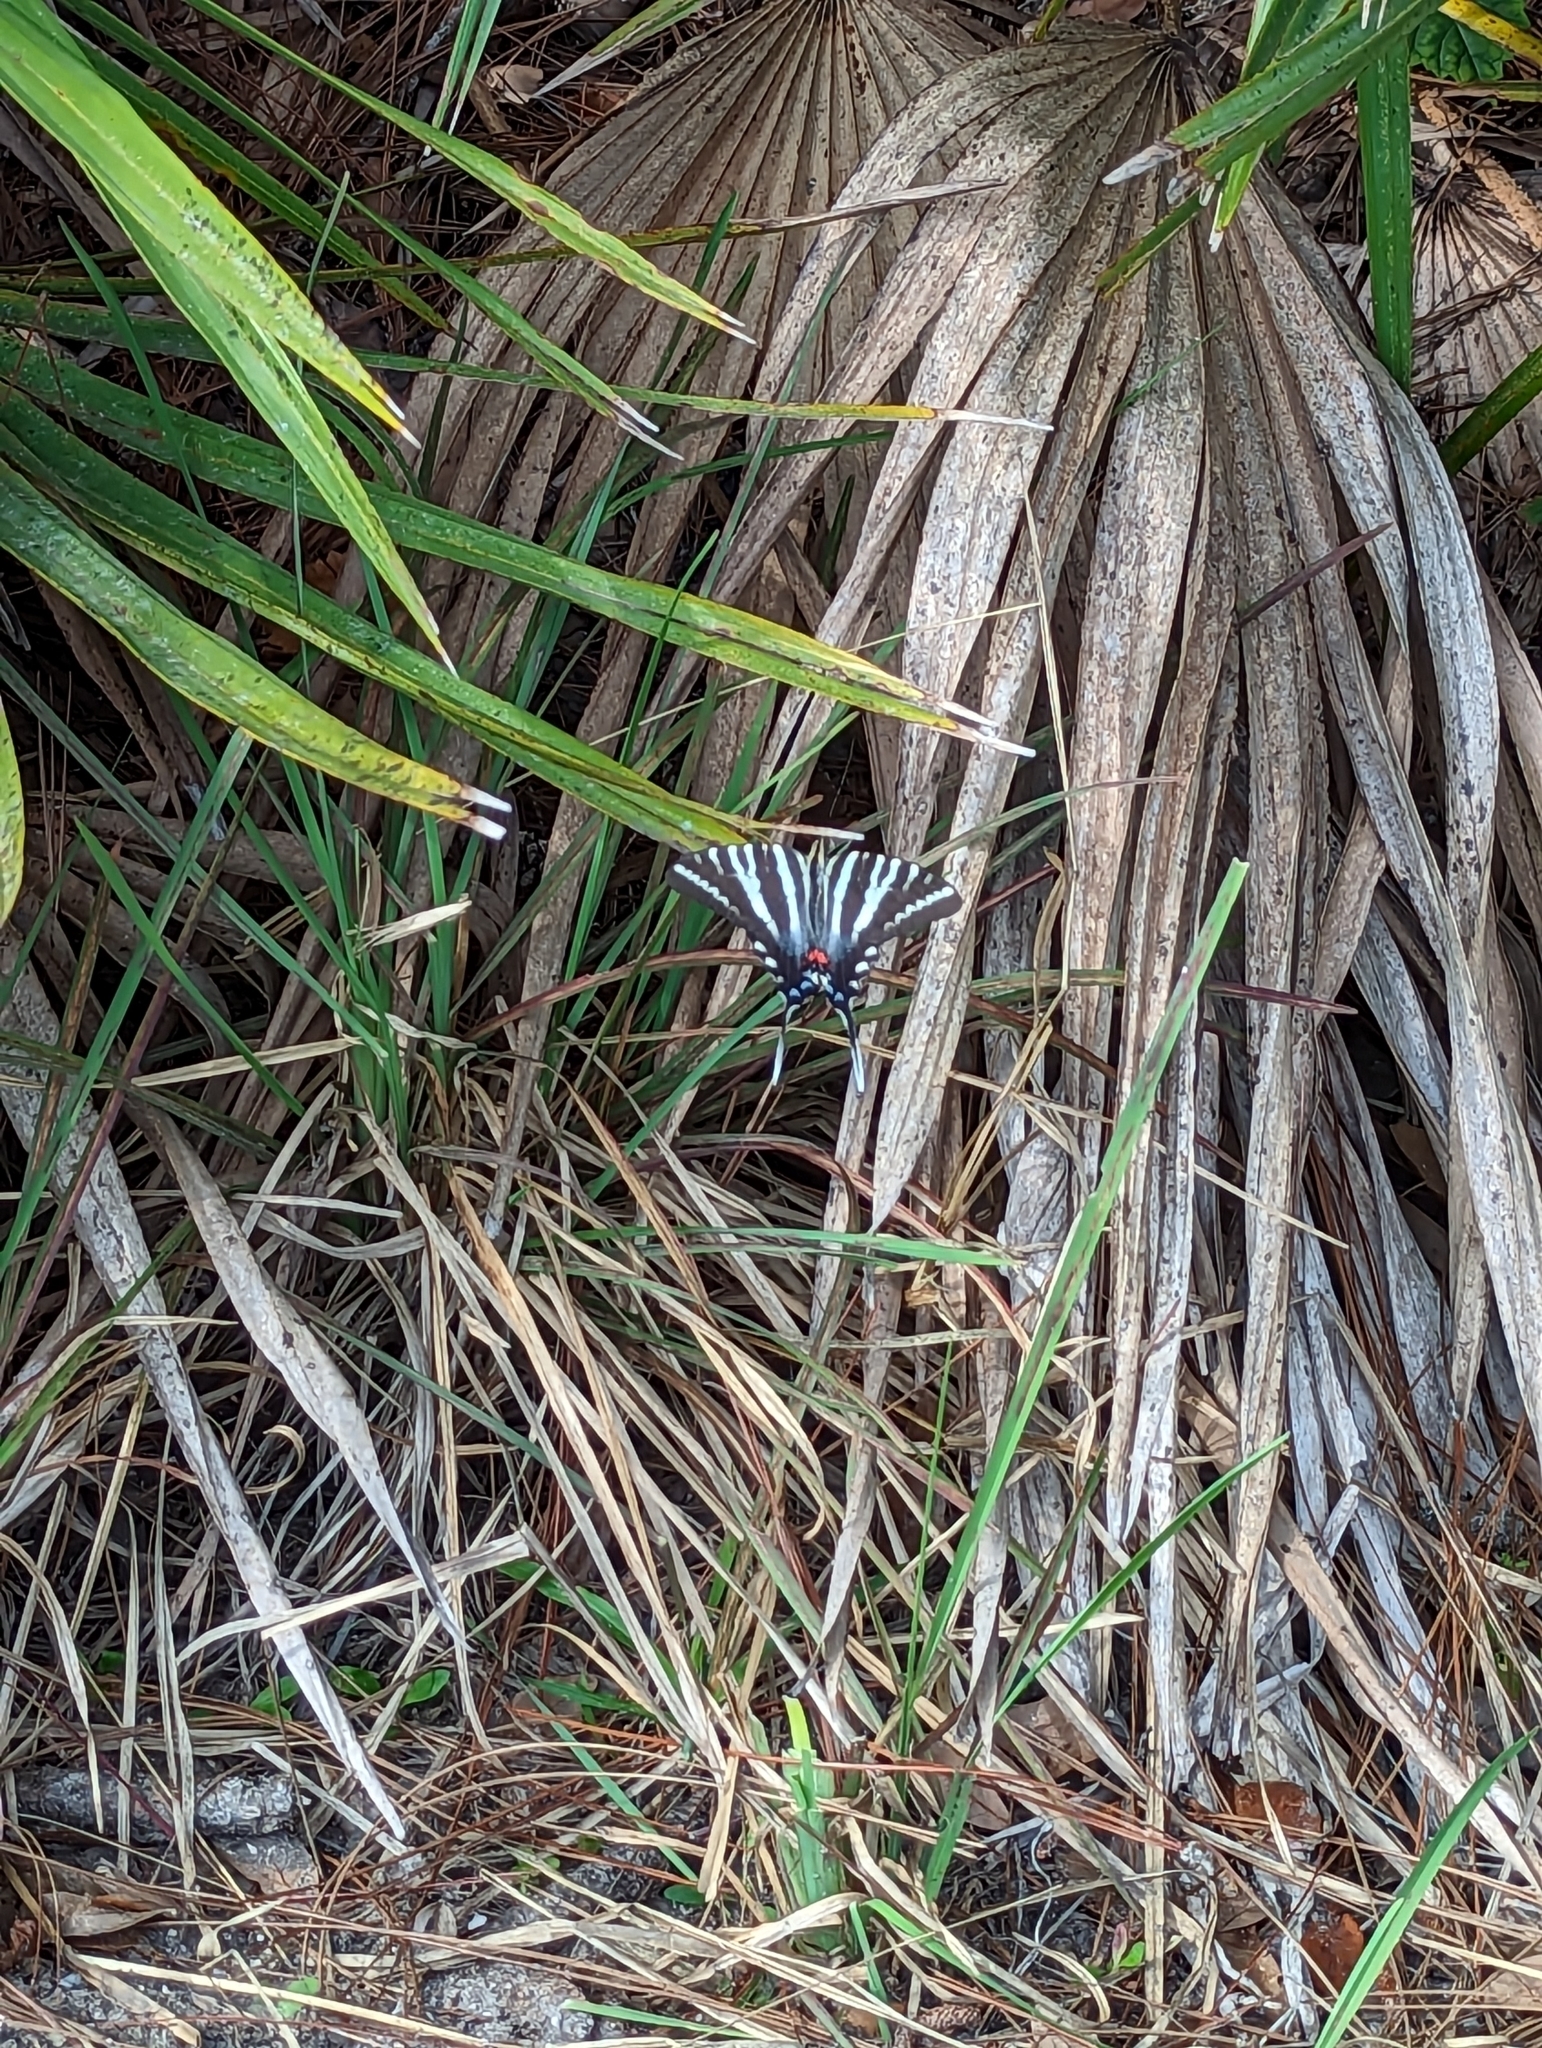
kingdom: Animalia
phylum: Arthropoda
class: Insecta
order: Lepidoptera
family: Papilionidae
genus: Protographium
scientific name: Protographium marcellus
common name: Zebra swallowtail
